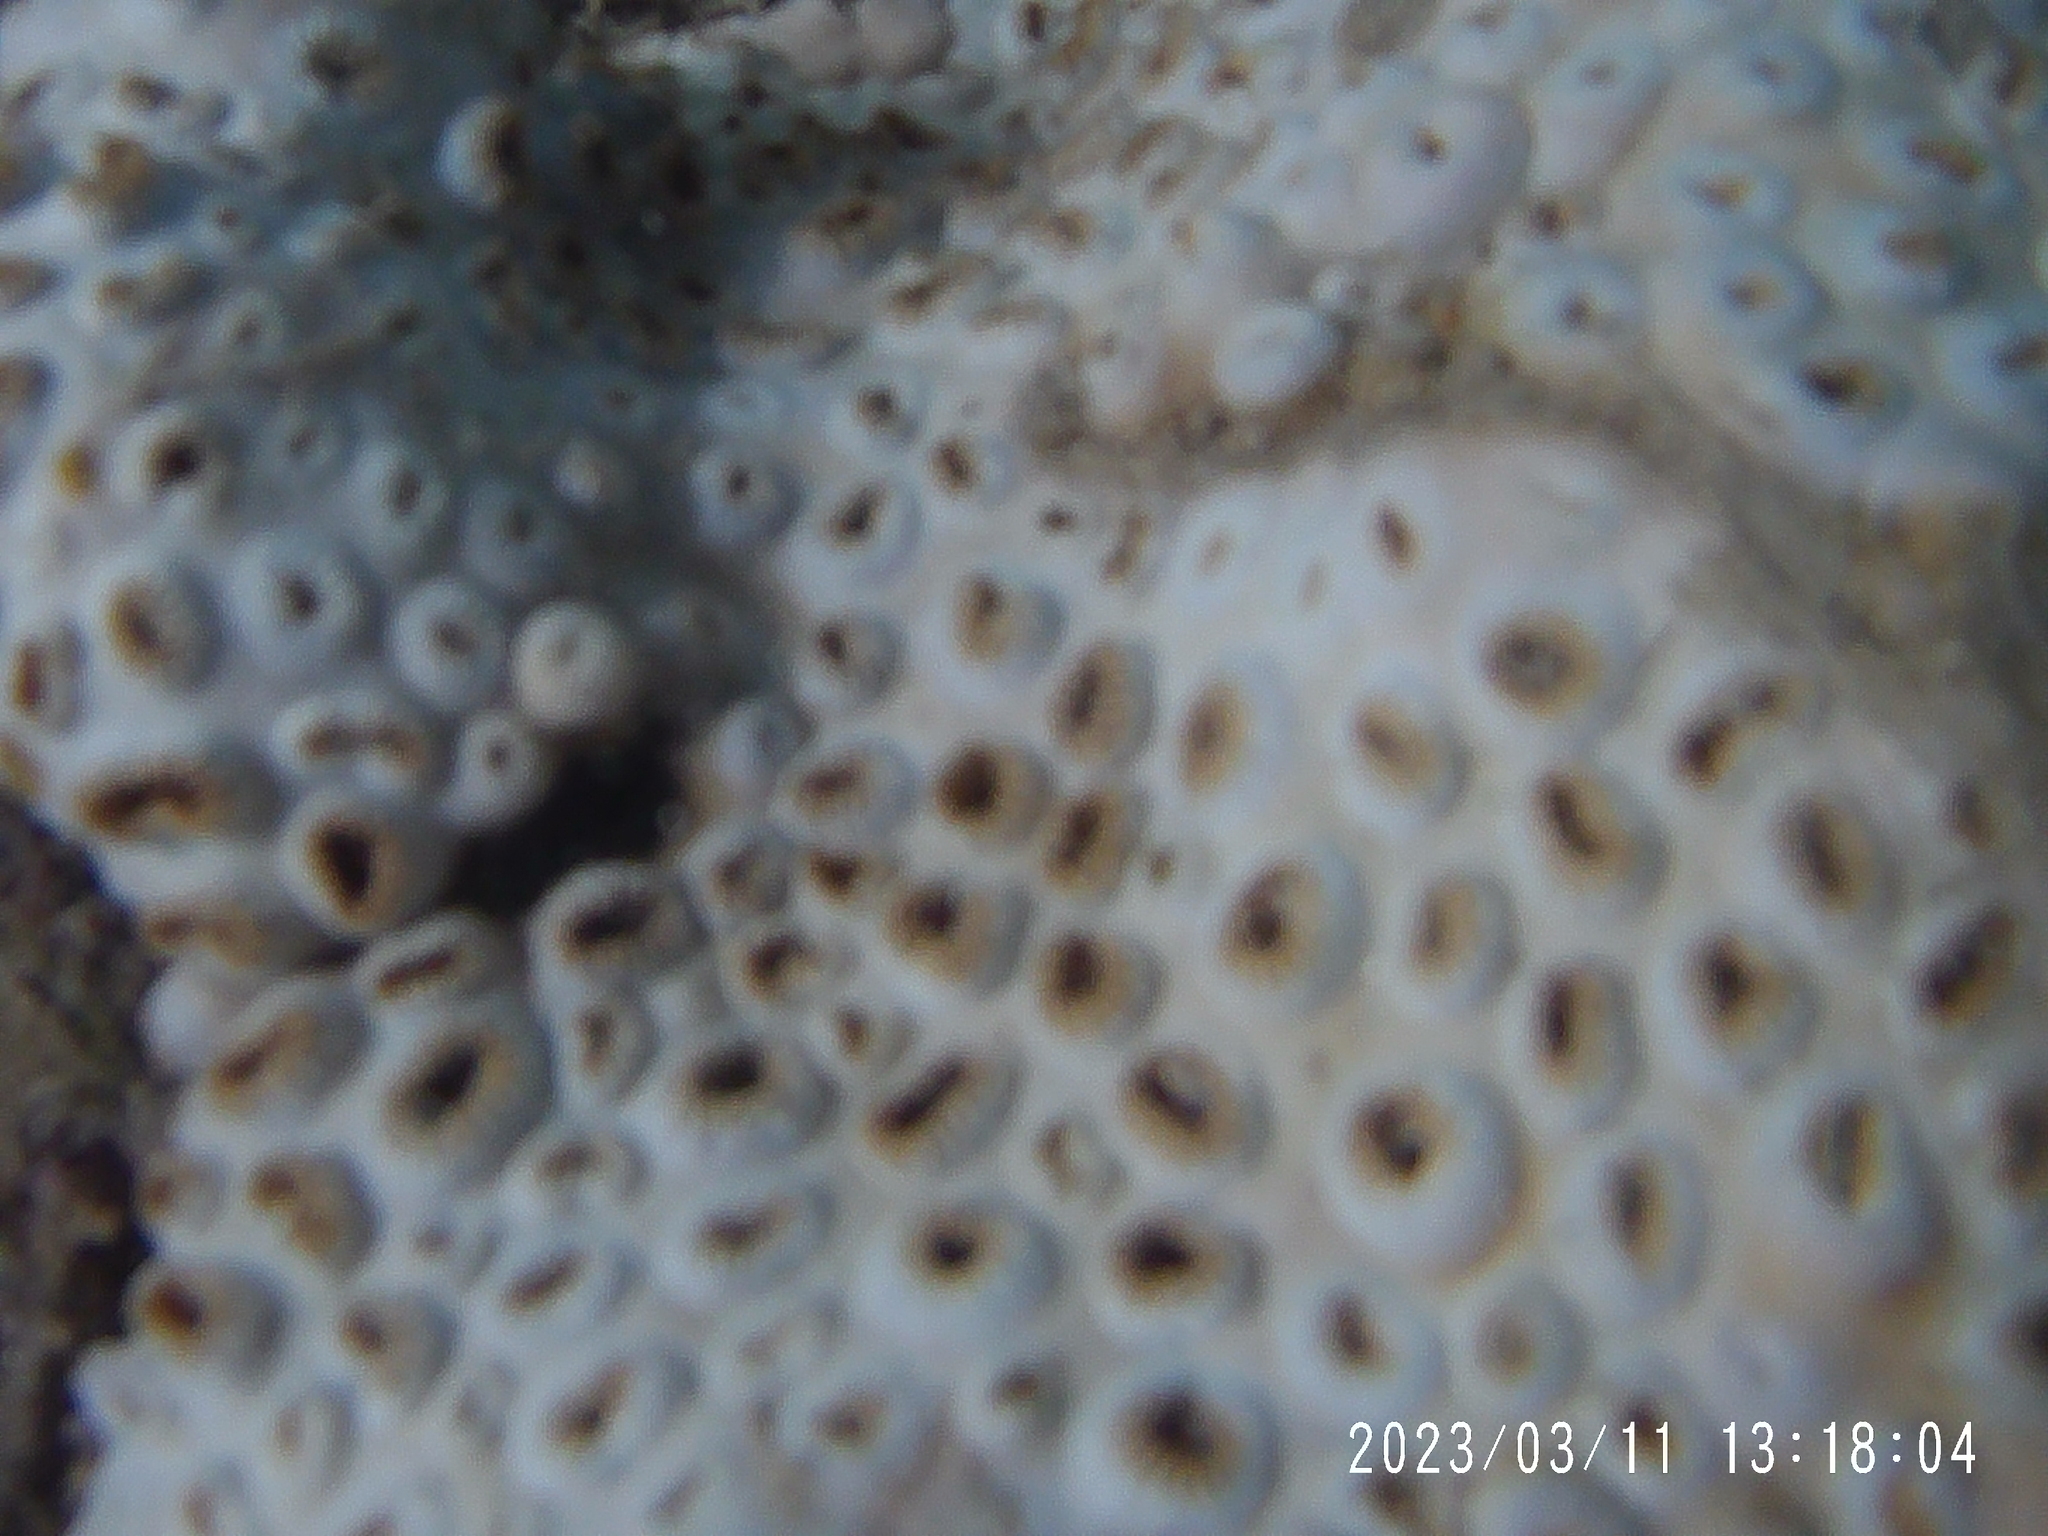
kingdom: Animalia
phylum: Cnidaria
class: Anthozoa
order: Zoantharia
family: Sphenopidae
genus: Palythoa
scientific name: Palythoa tuberculosa
